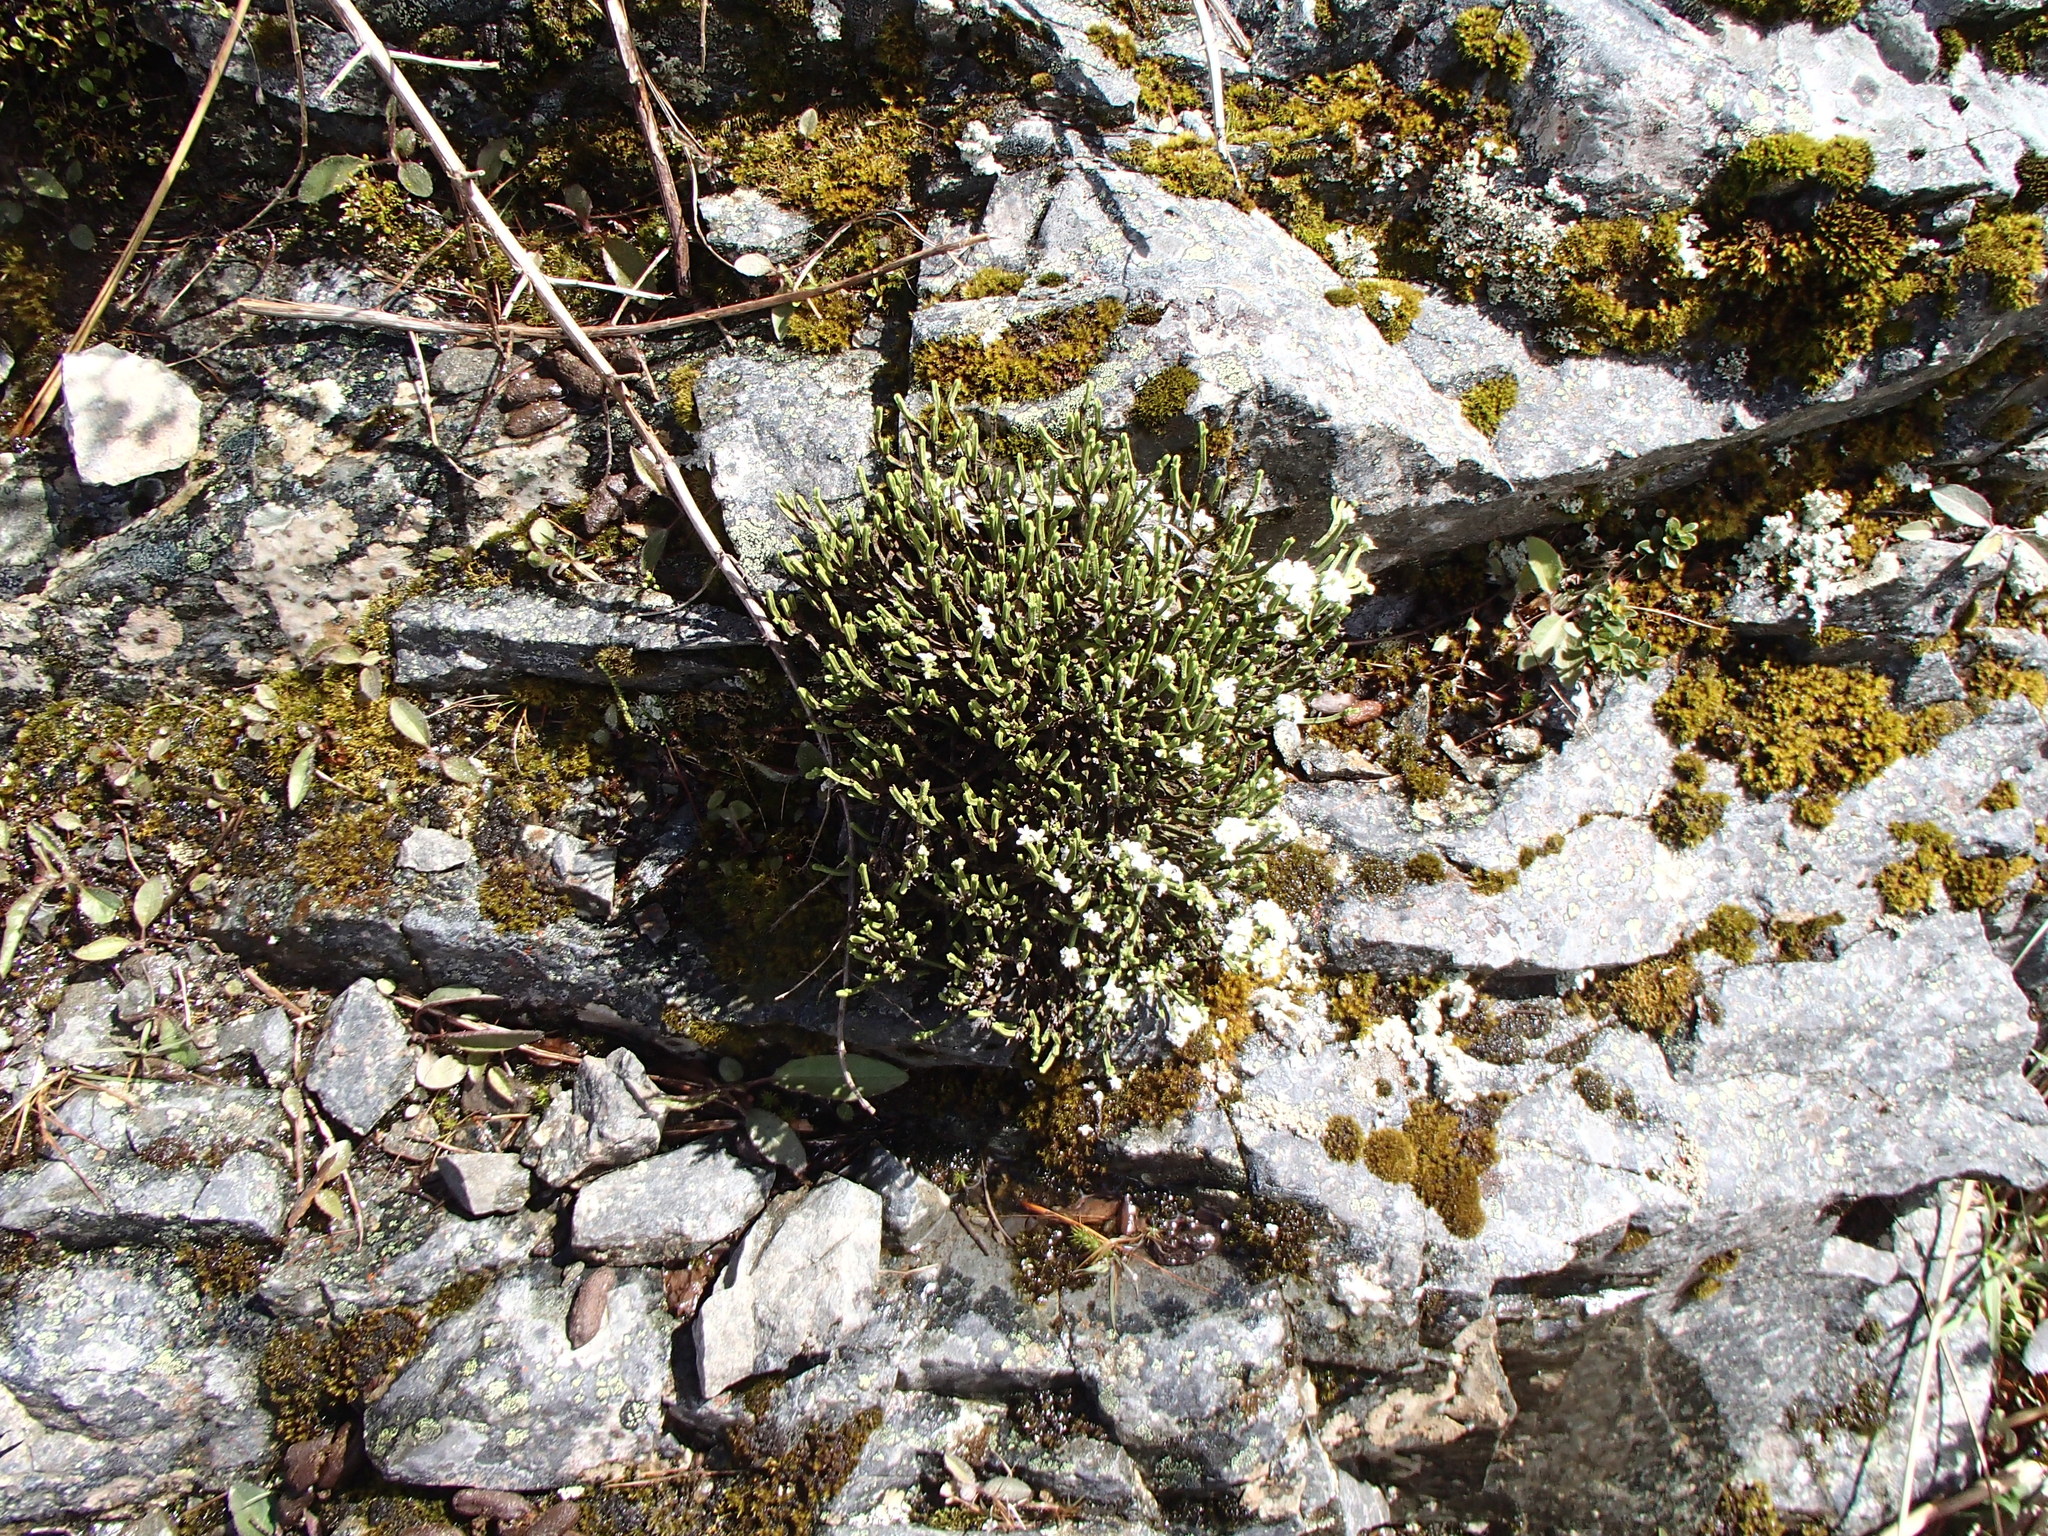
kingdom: Plantae
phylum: Tracheophyta
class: Magnoliopsida
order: Lamiales
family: Plantaginaceae
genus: Veronica
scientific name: Veronica hookeri
